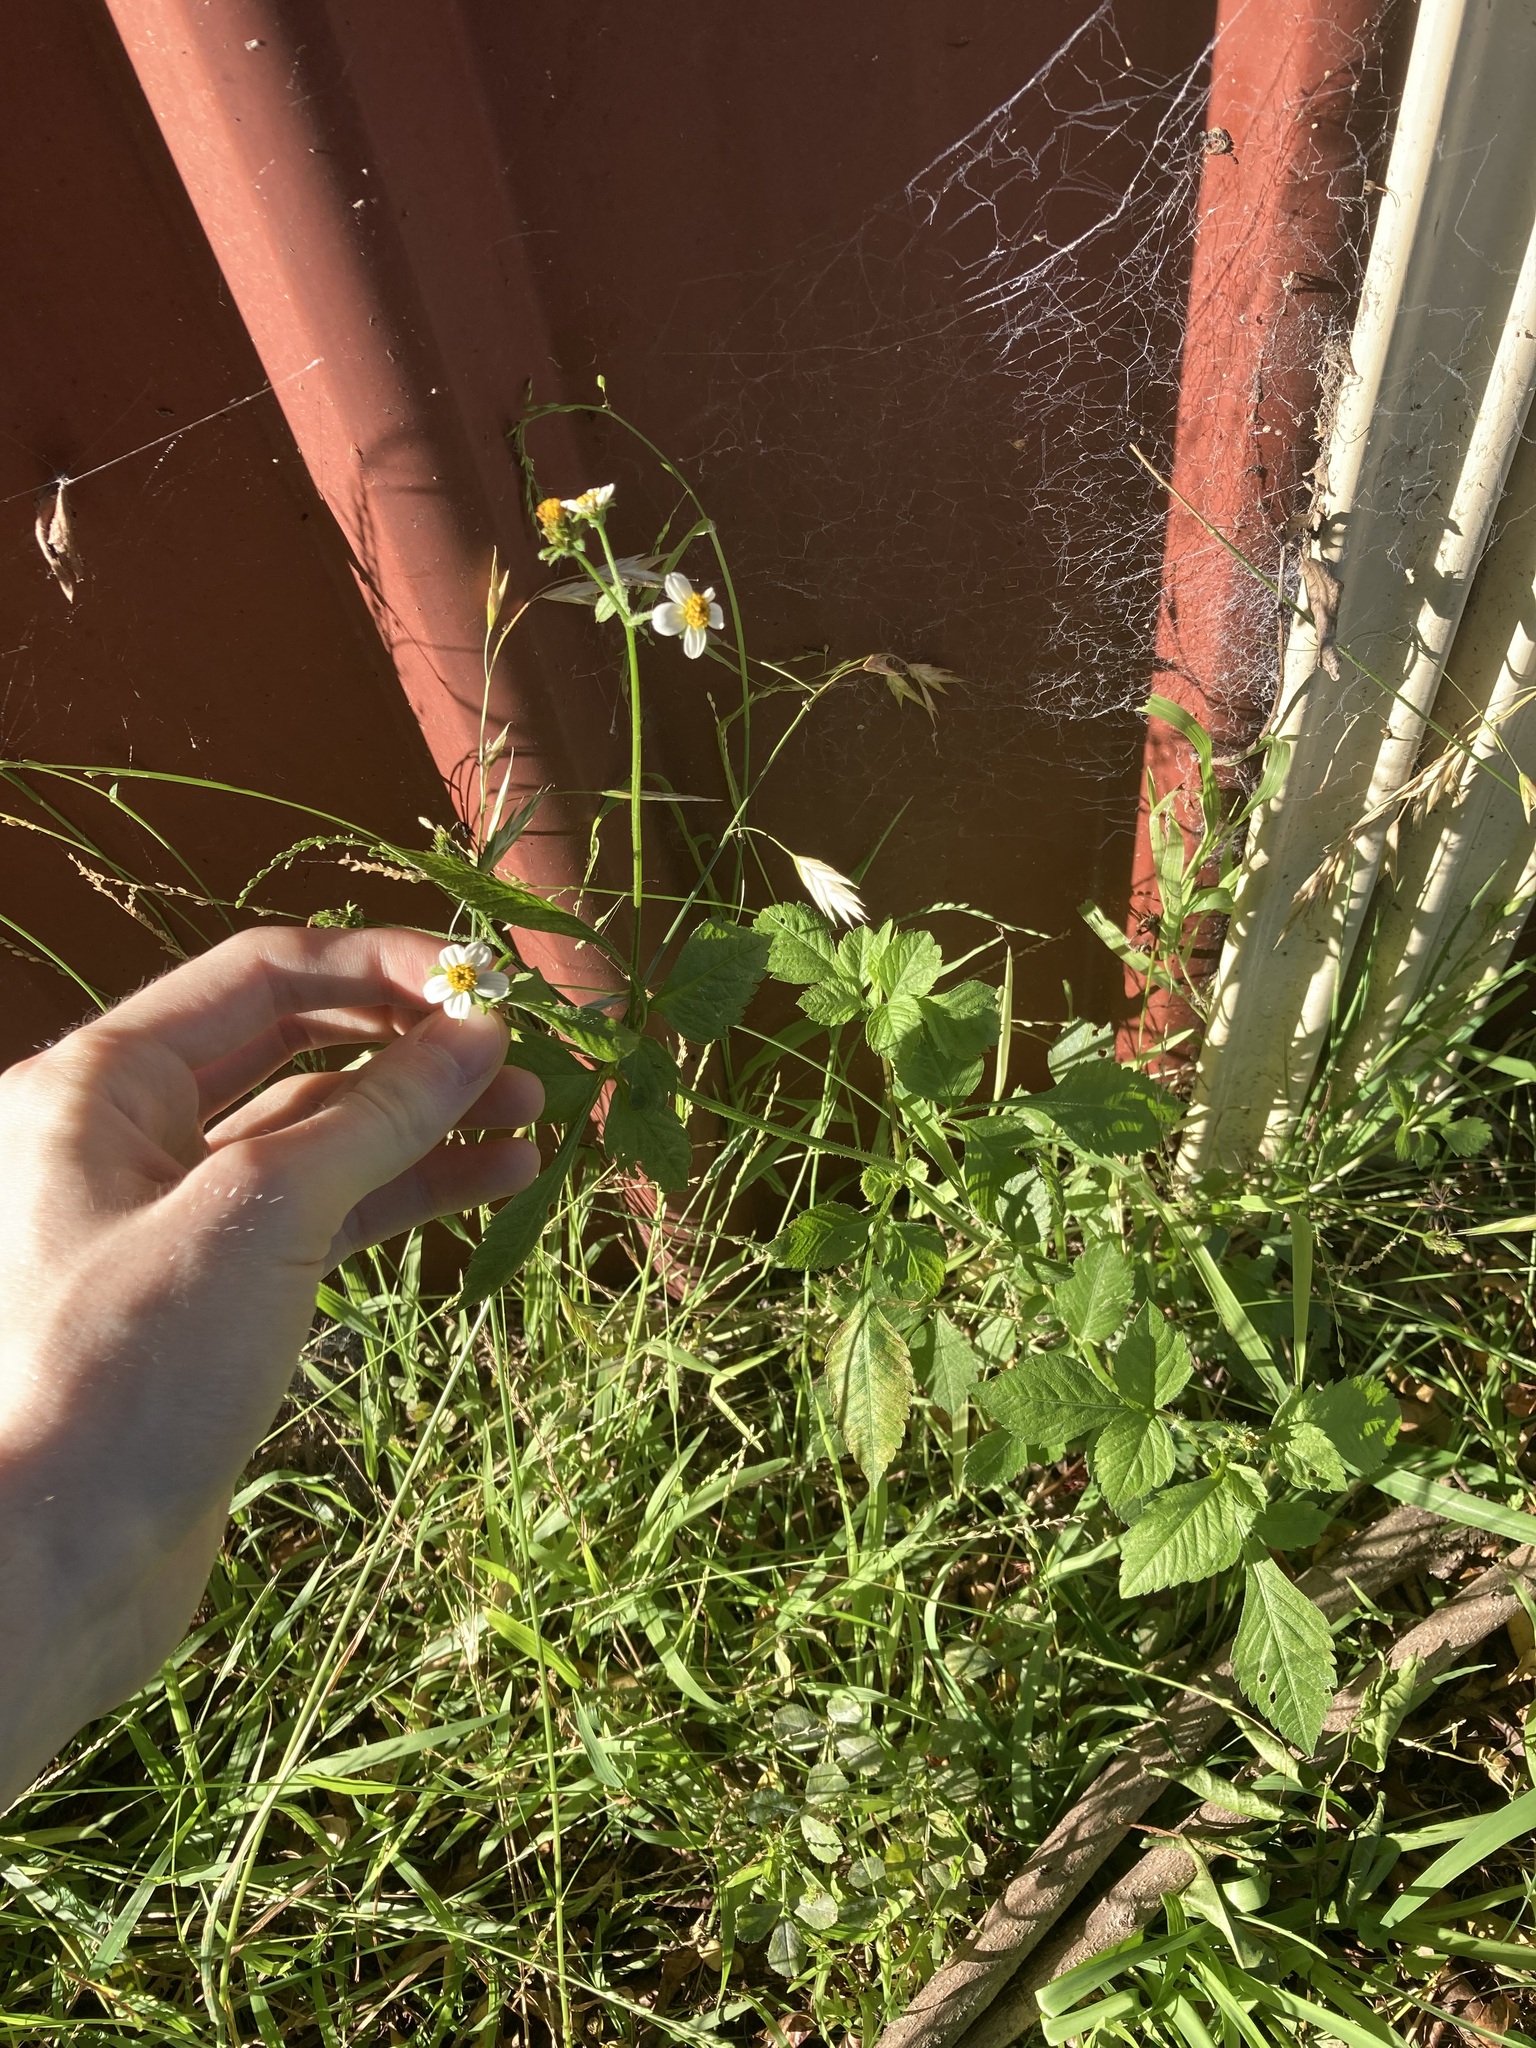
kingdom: Plantae
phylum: Tracheophyta
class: Magnoliopsida
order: Asterales
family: Asteraceae
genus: Bidens
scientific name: Bidens alba
